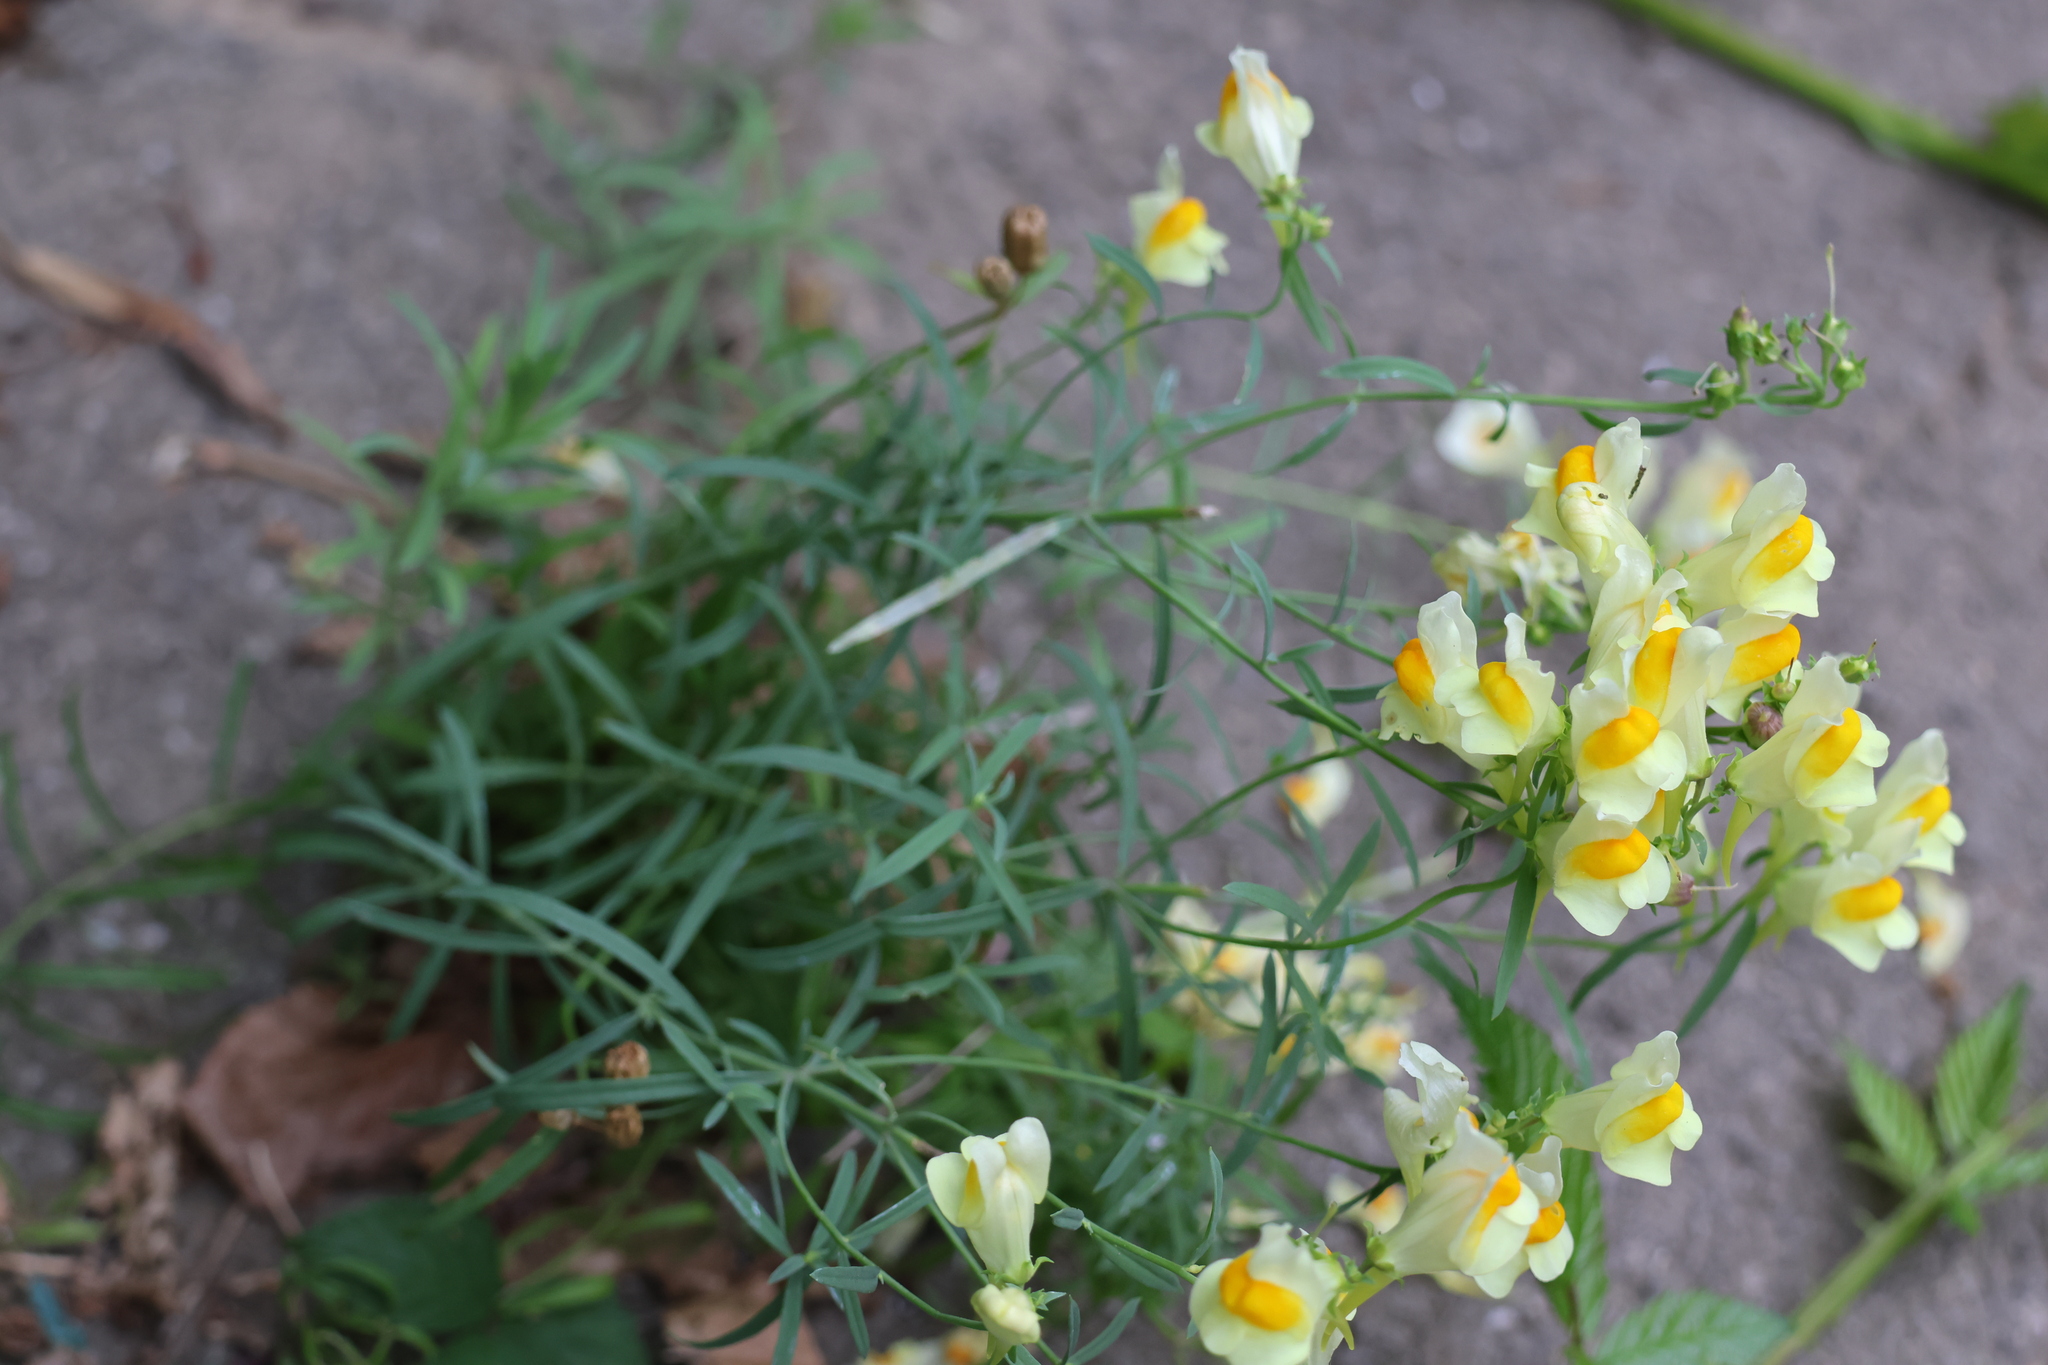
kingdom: Plantae
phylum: Tracheophyta
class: Magnoliopsida
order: Lamiales
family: Plantaginaceae
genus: Linaria
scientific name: Linaria vulgaris
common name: Butter and eggs
